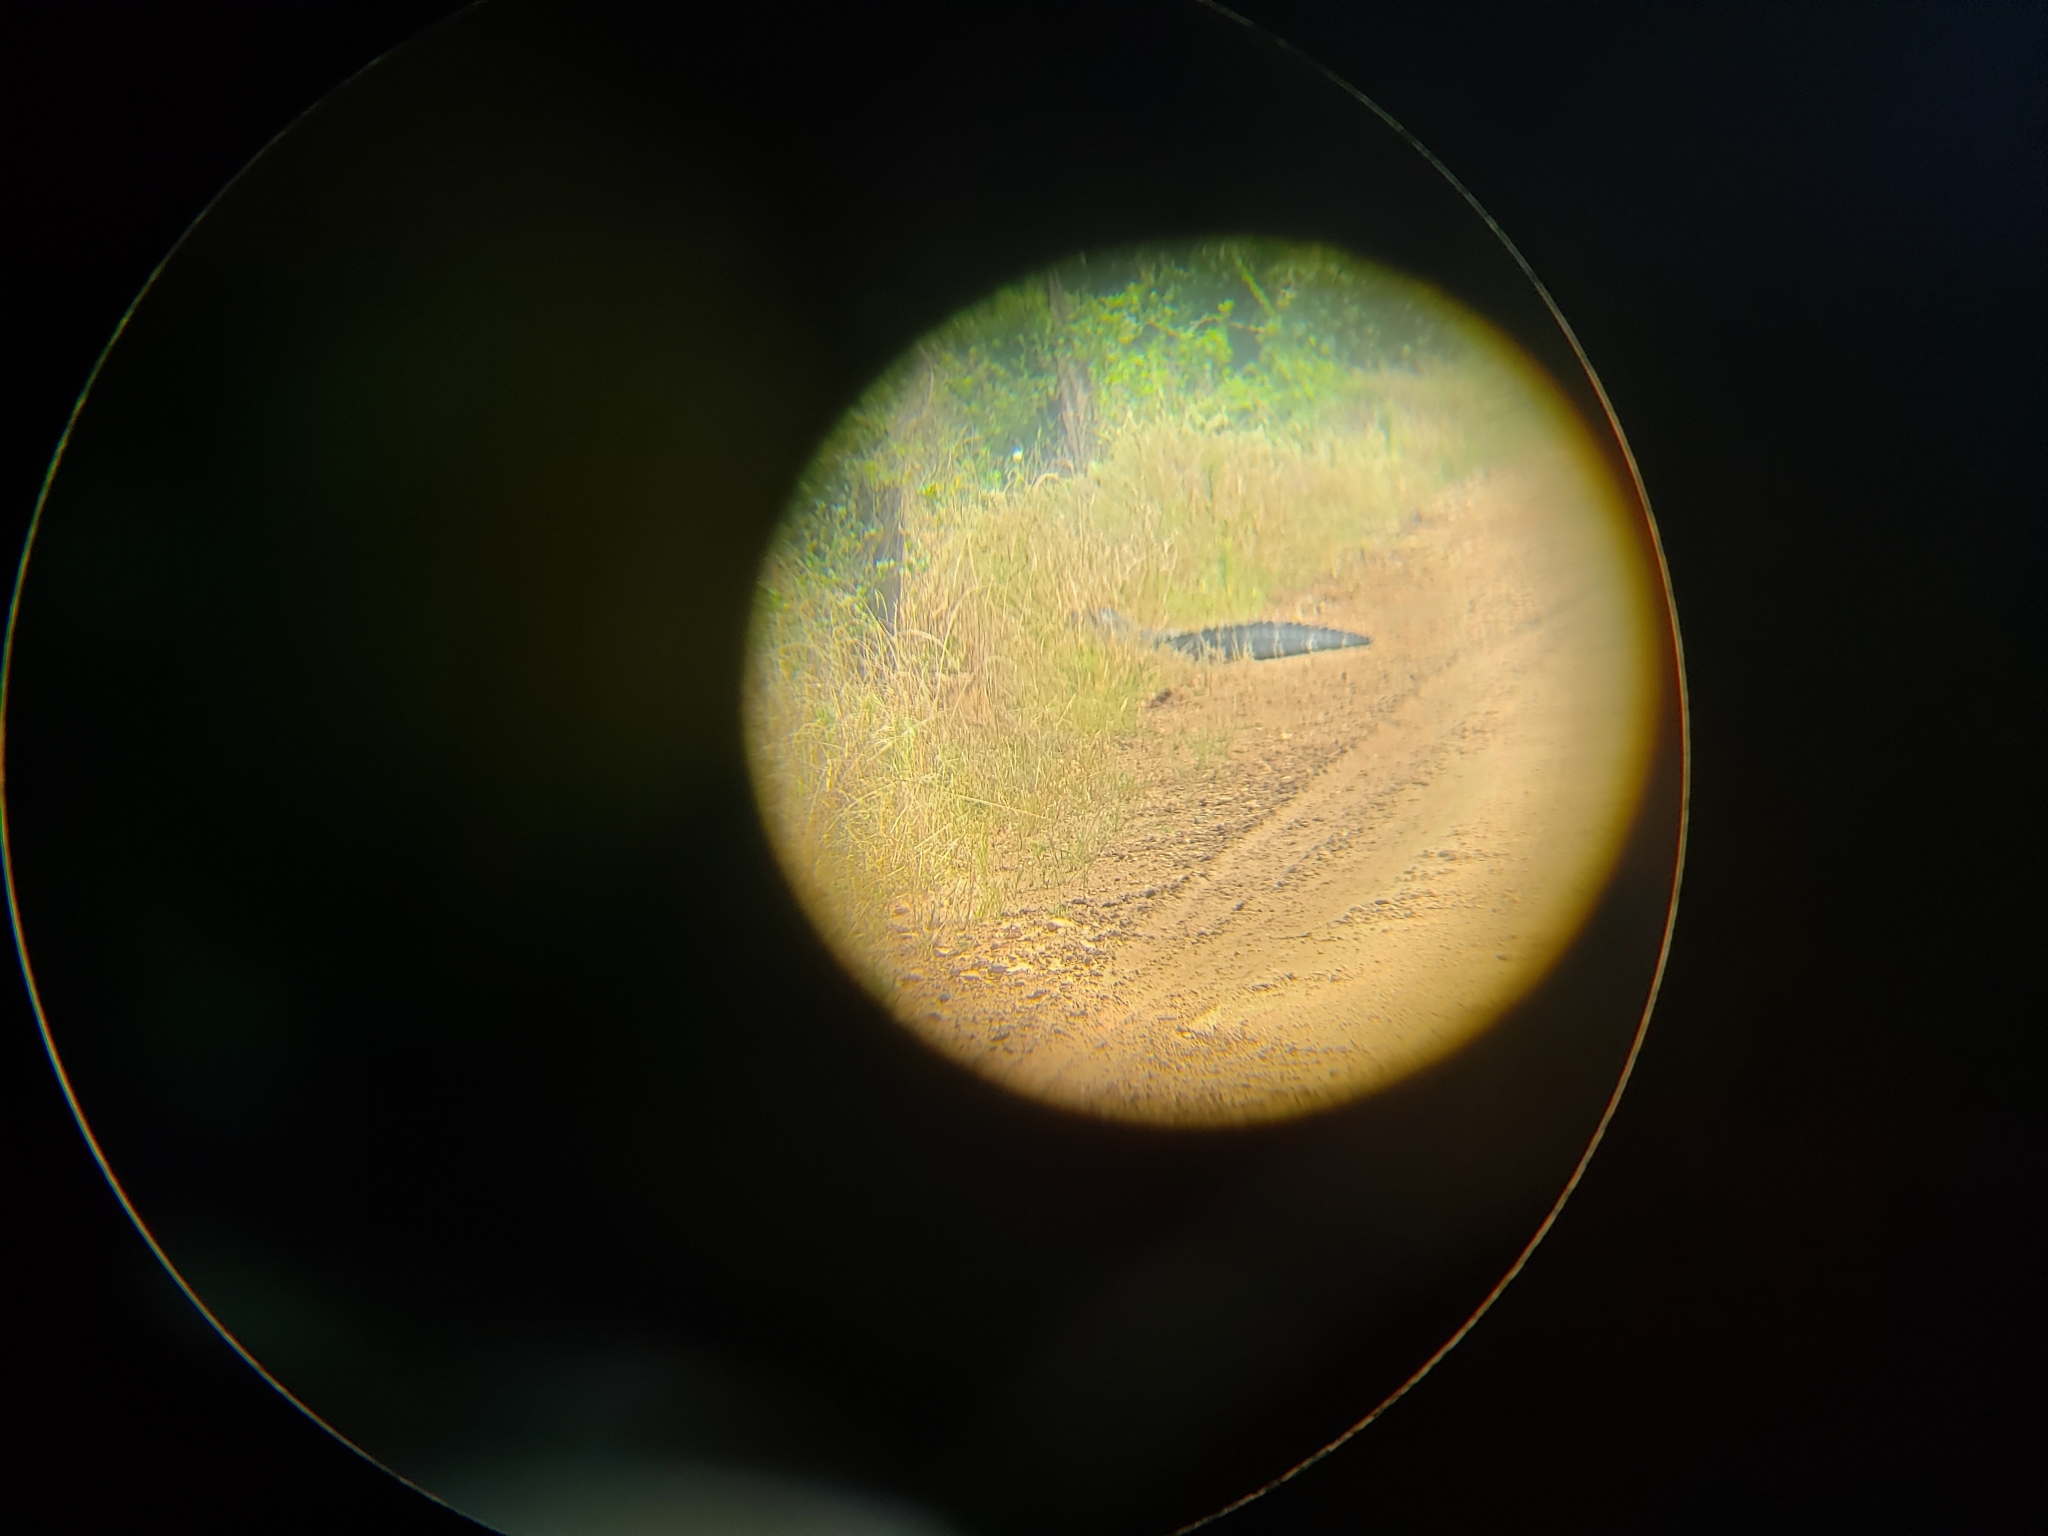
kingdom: Animalia
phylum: Chordata
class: Crocodylia
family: Alligatoridae
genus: Alligator
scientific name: Alligator mississippiensis
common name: American alligator
